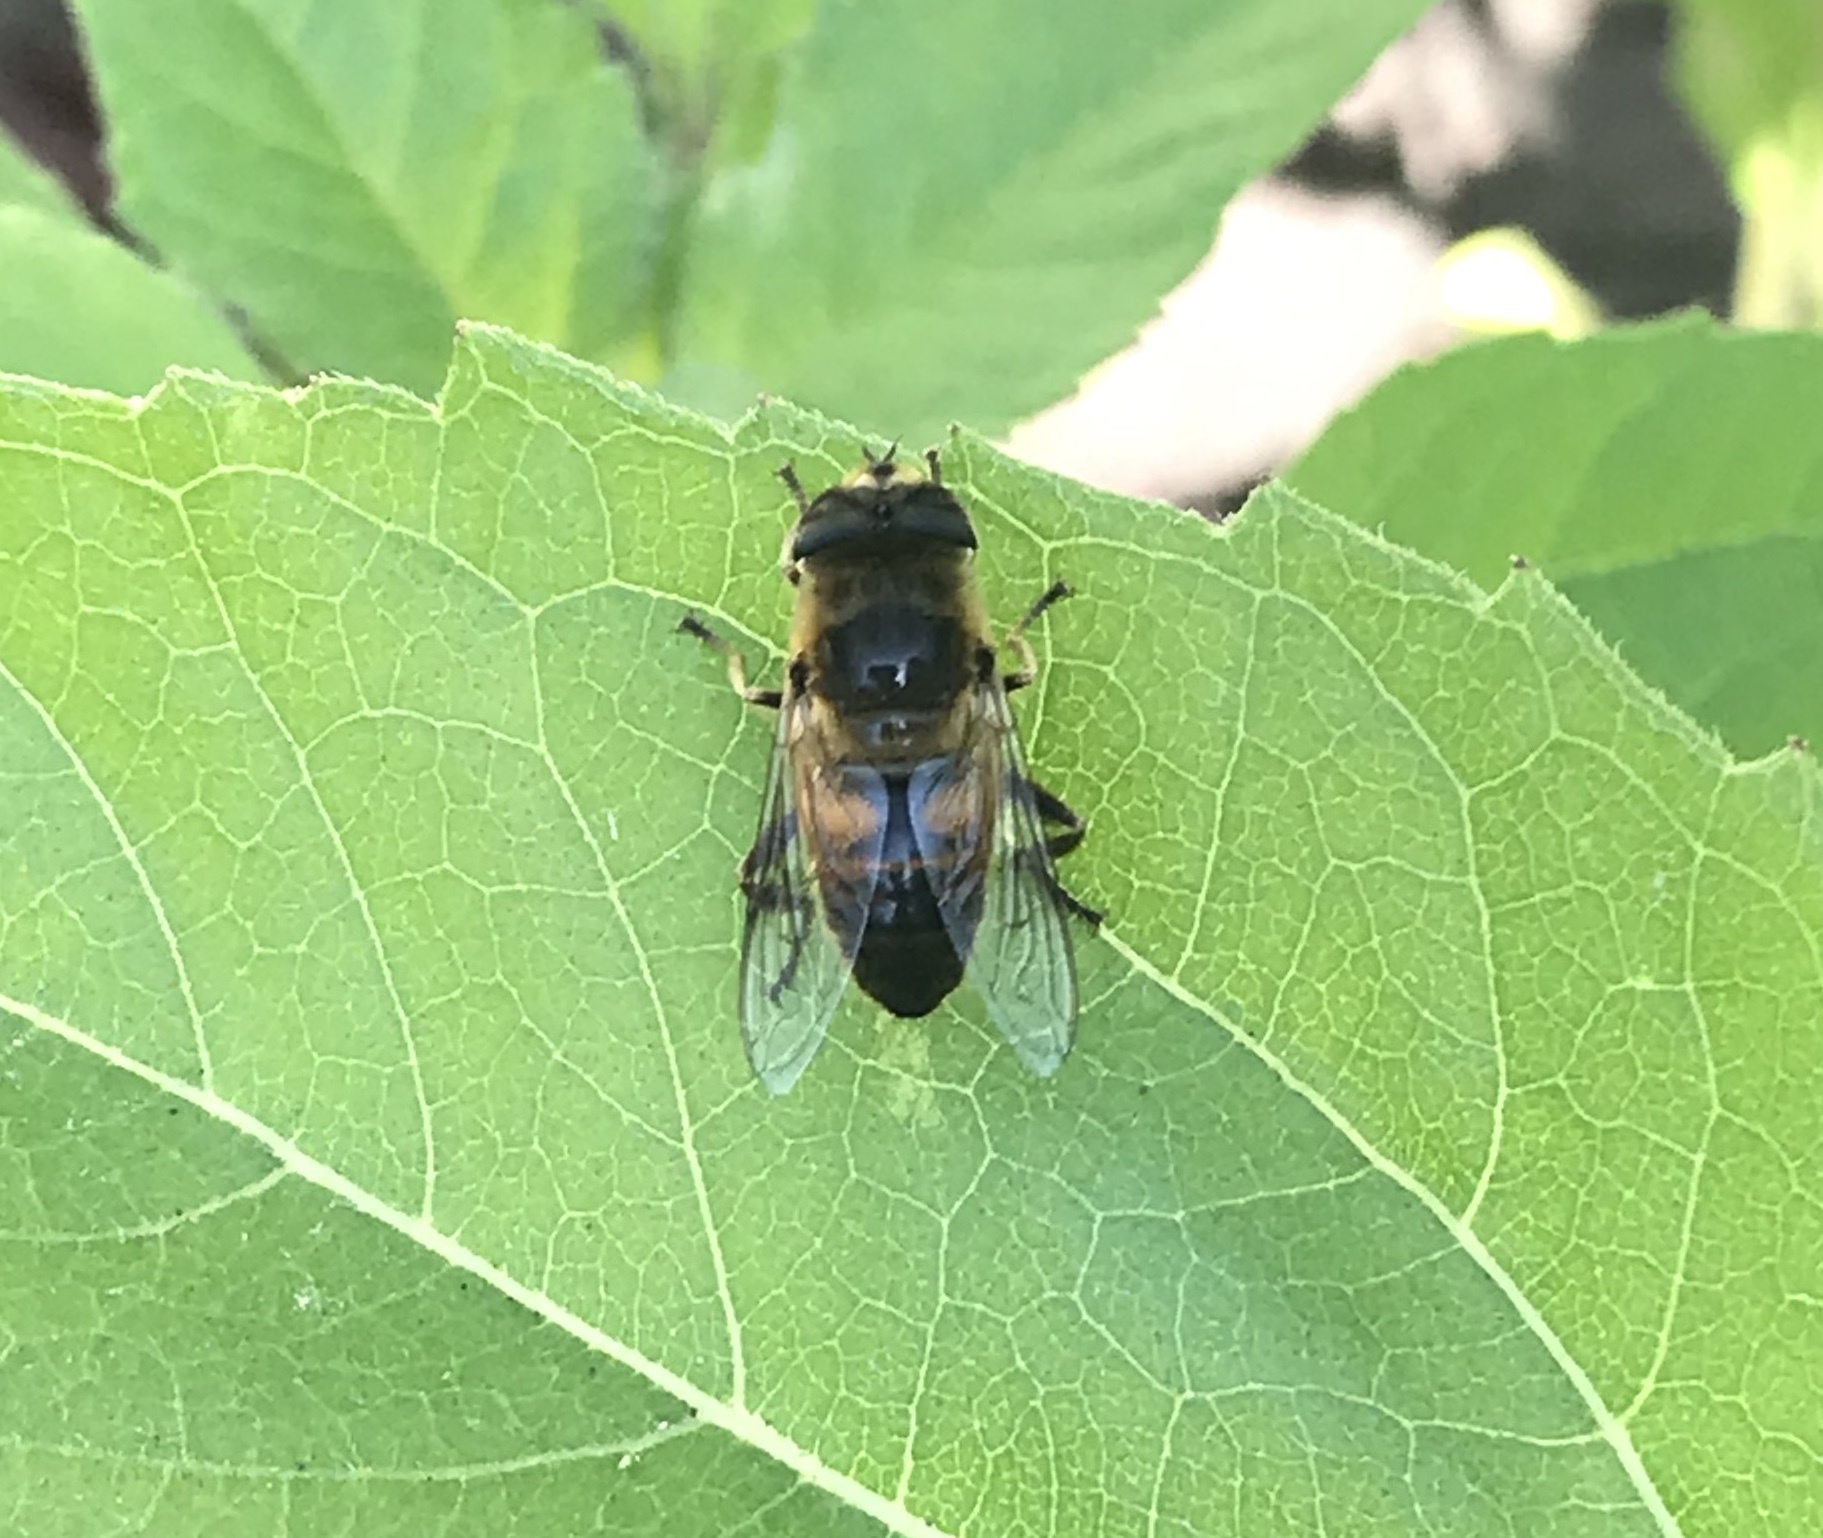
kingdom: Animalia
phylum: Arthropoda
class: Insecta
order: Diptera
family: Syrphidae
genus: Eristalis
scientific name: Eristalis tenax
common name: Drone fly
